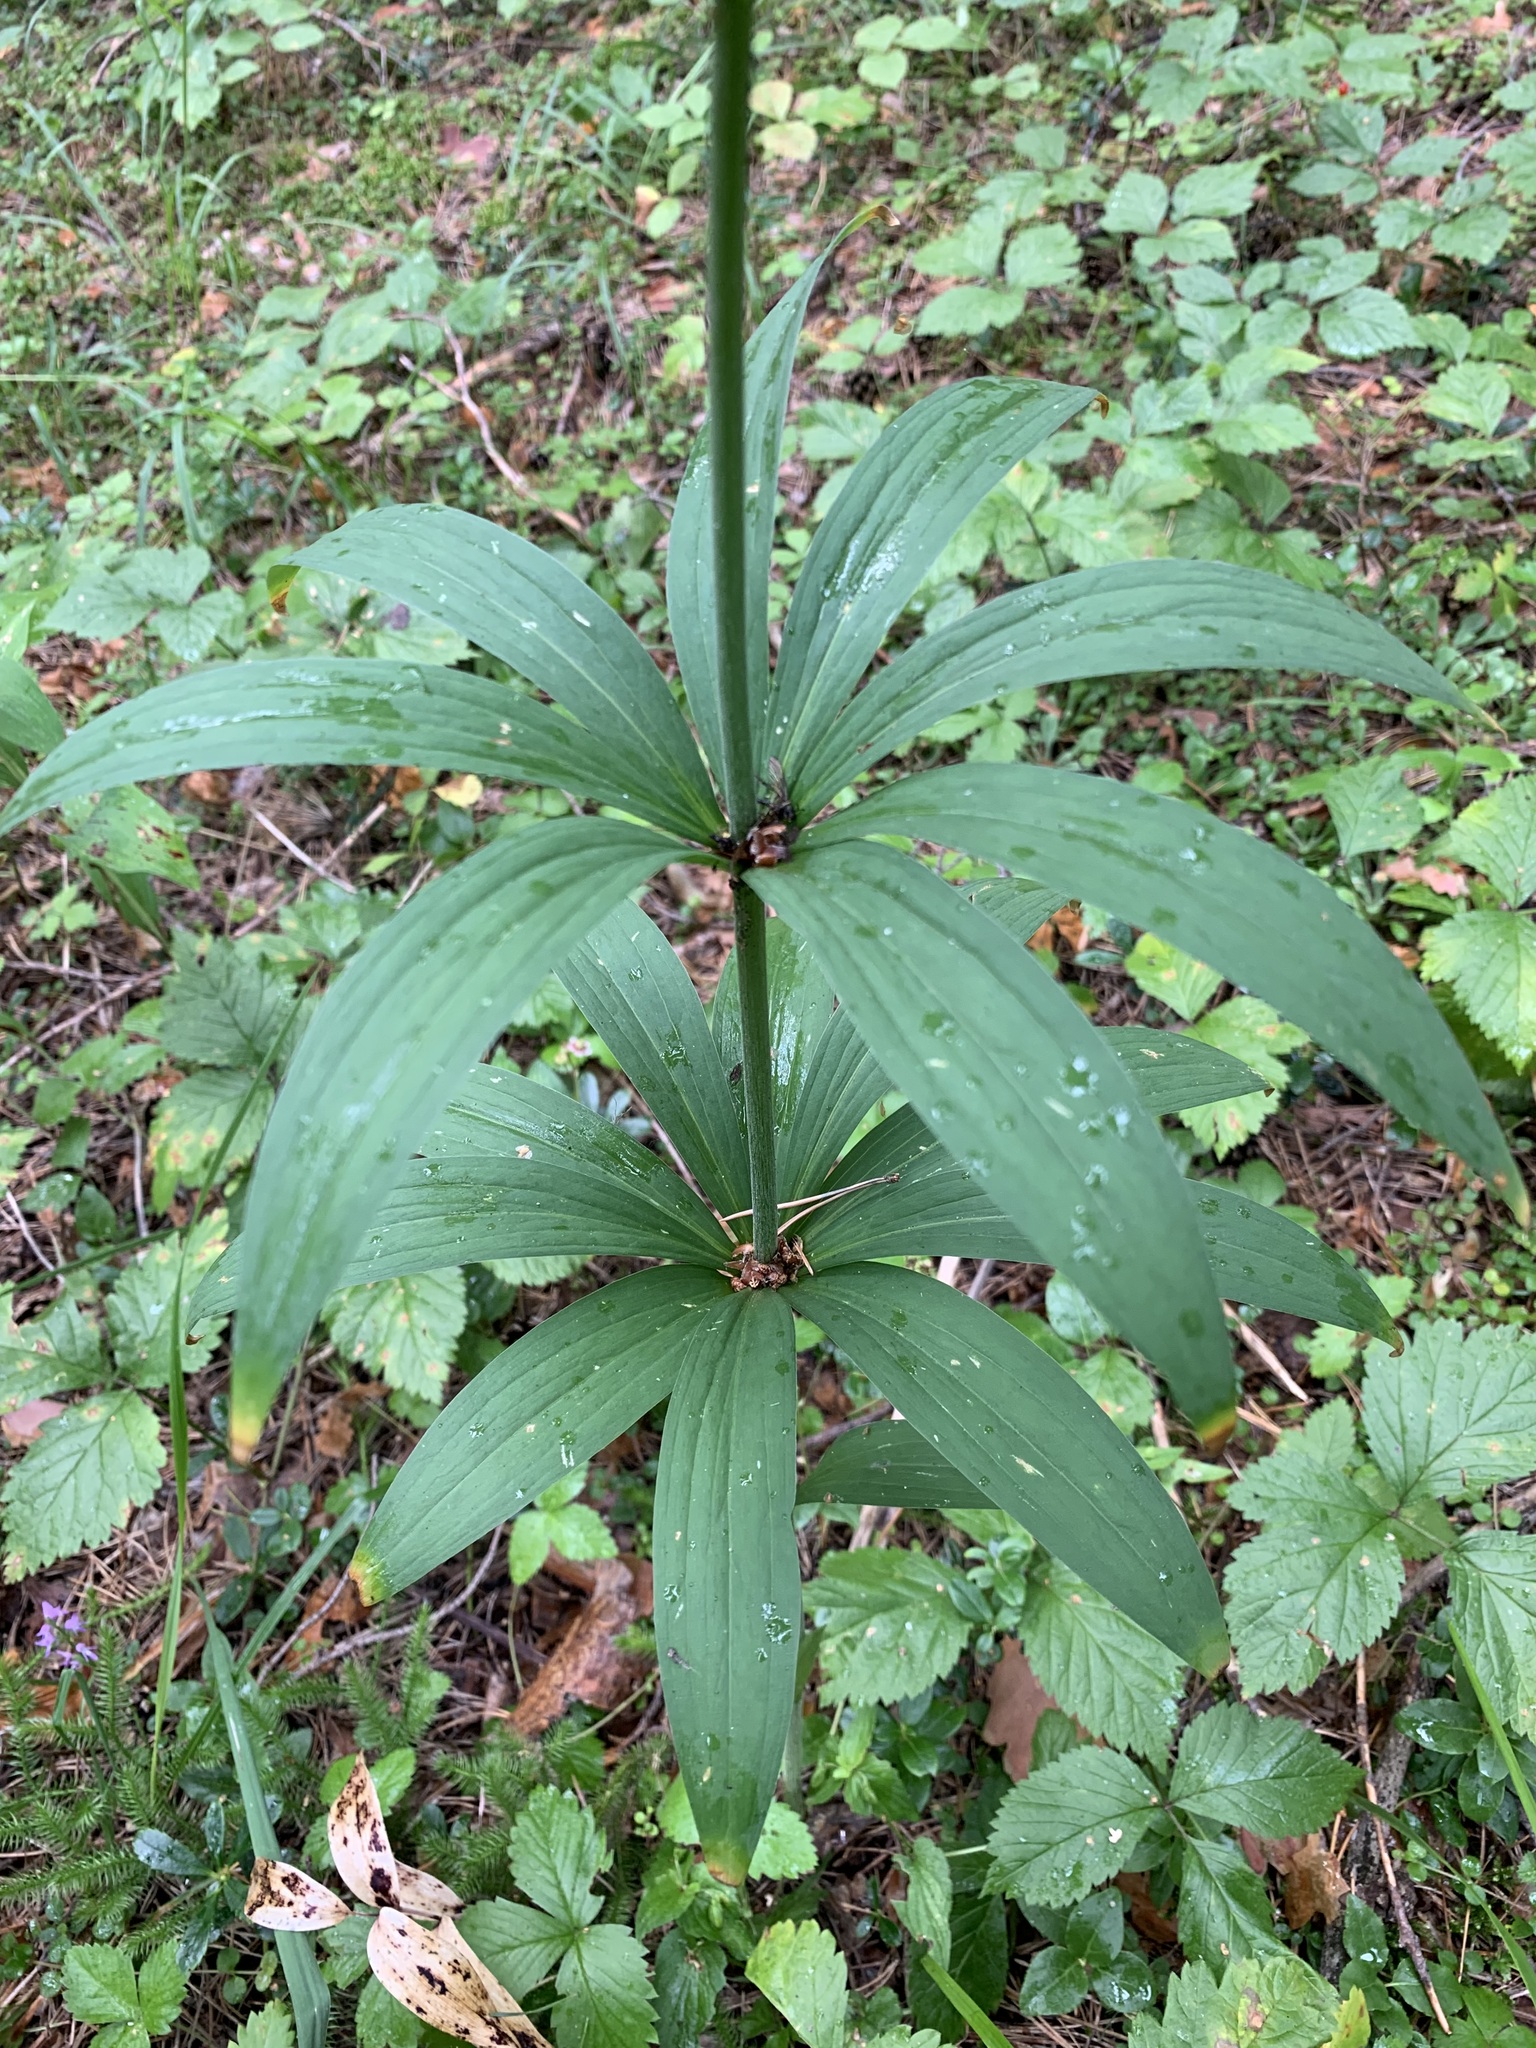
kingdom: Plantae
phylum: Tracheophyta
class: Liliopsida
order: Liliales
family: Liliaceae
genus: Lilium
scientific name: Lilium martagon
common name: Martagon lily
